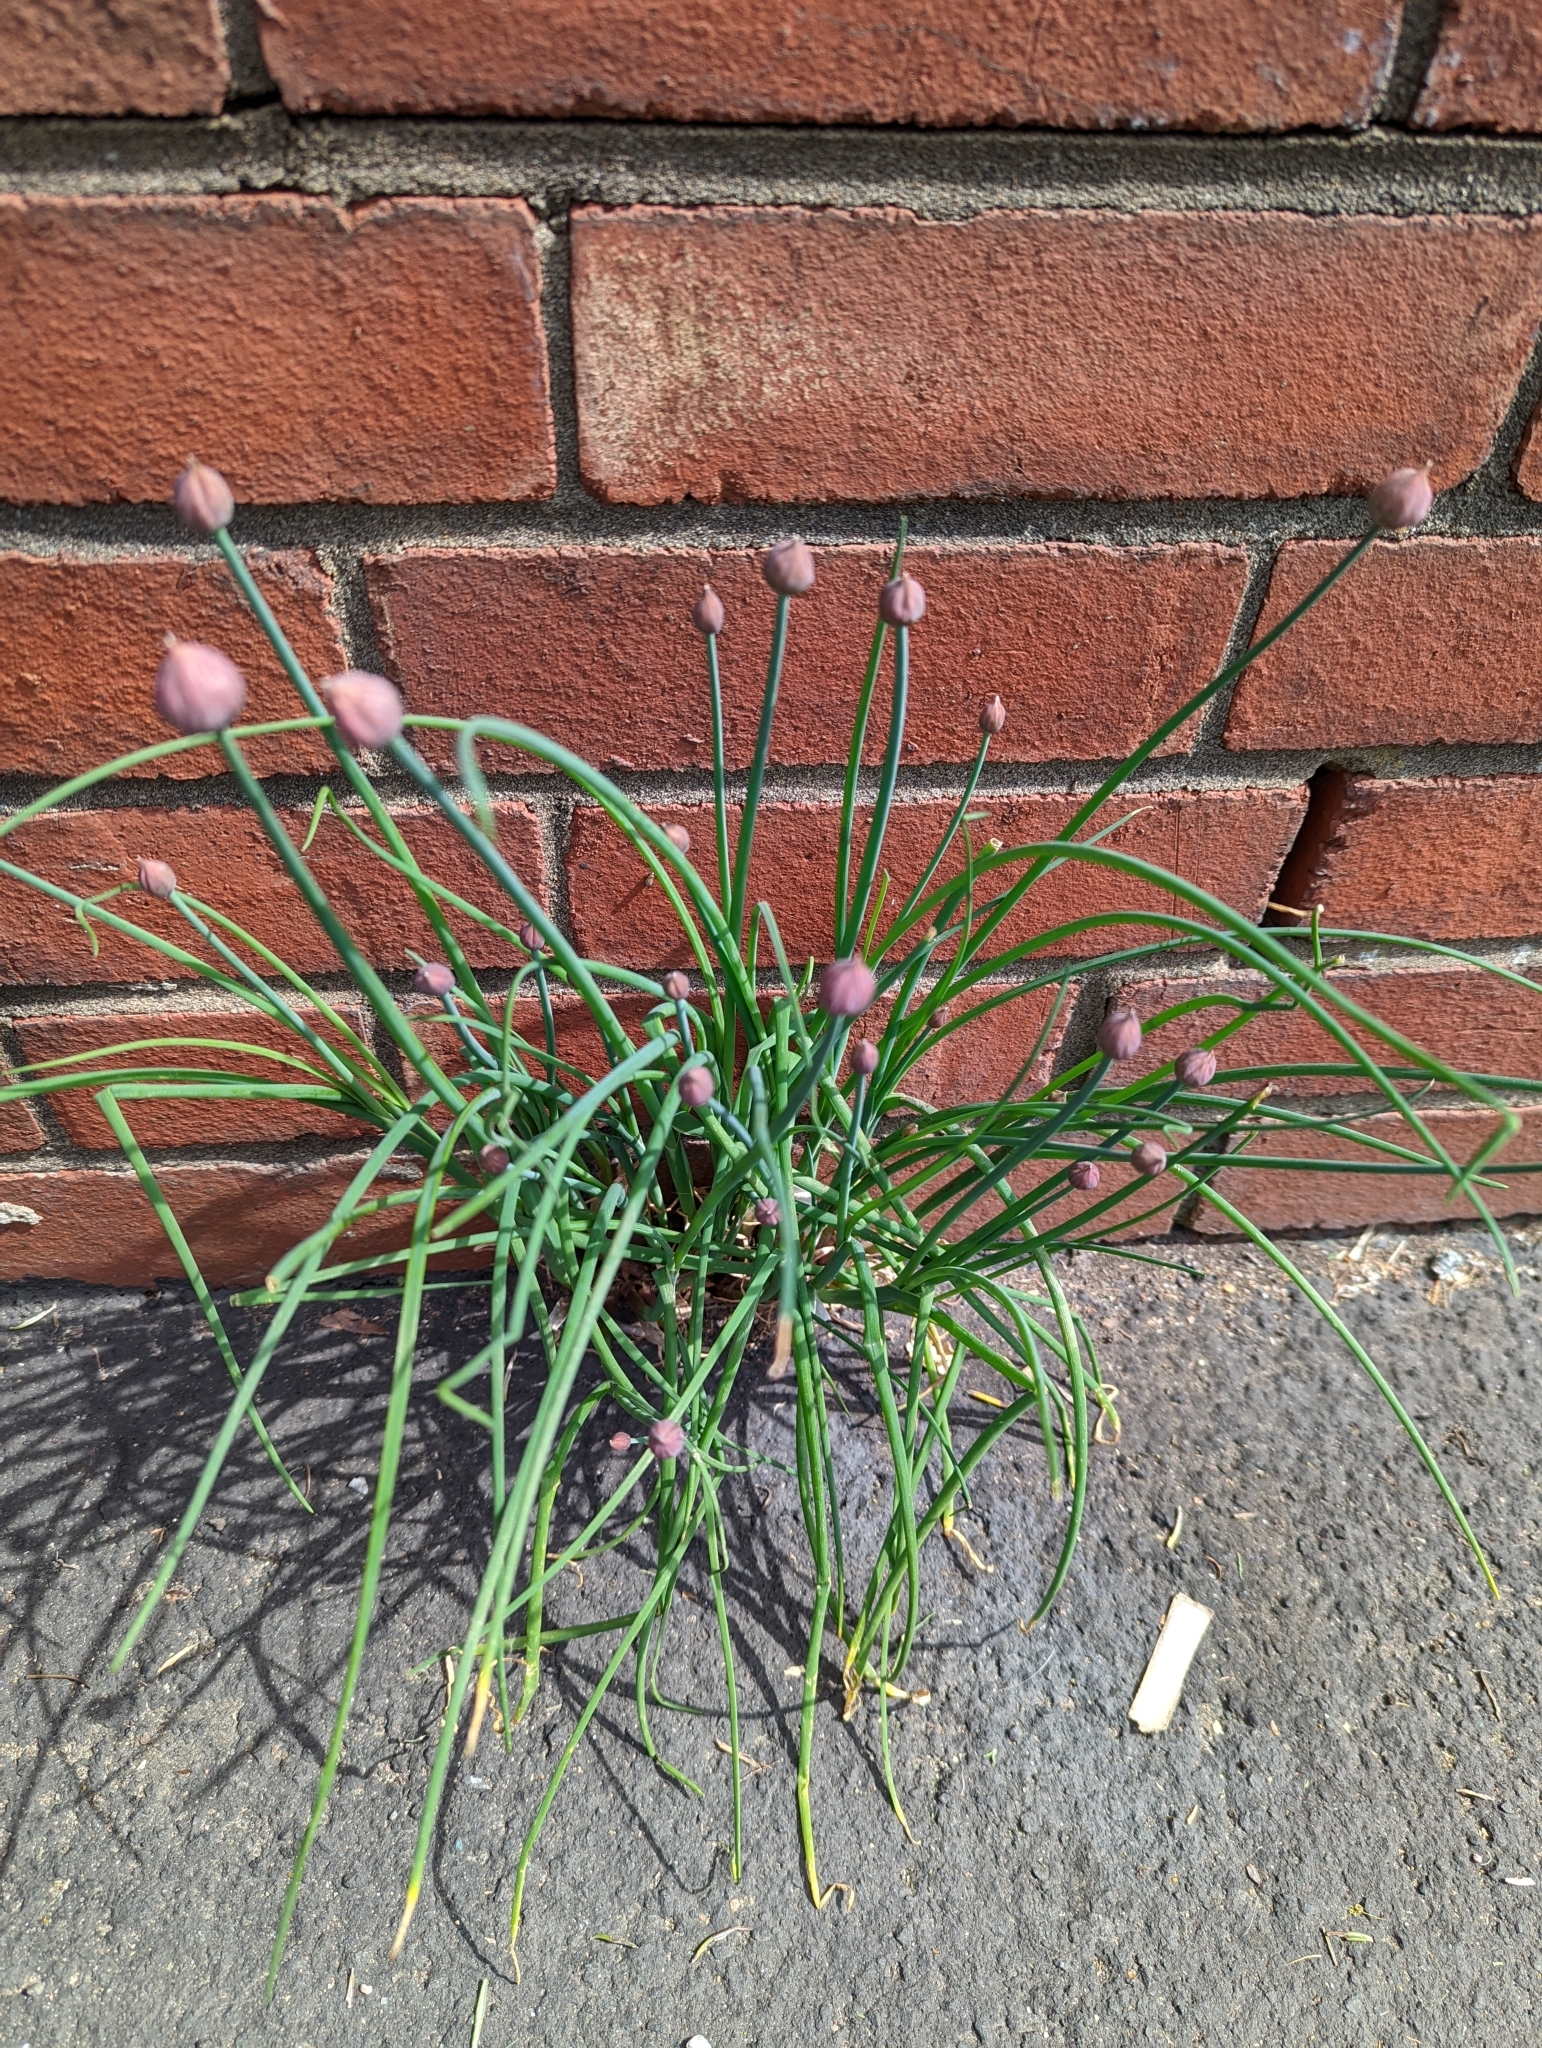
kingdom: Plantae
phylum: Tracheophyta
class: Liliopsida
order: Asparagales
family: Amaryllidaceae
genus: Allium
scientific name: Allium schoenoprasum
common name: Chives
